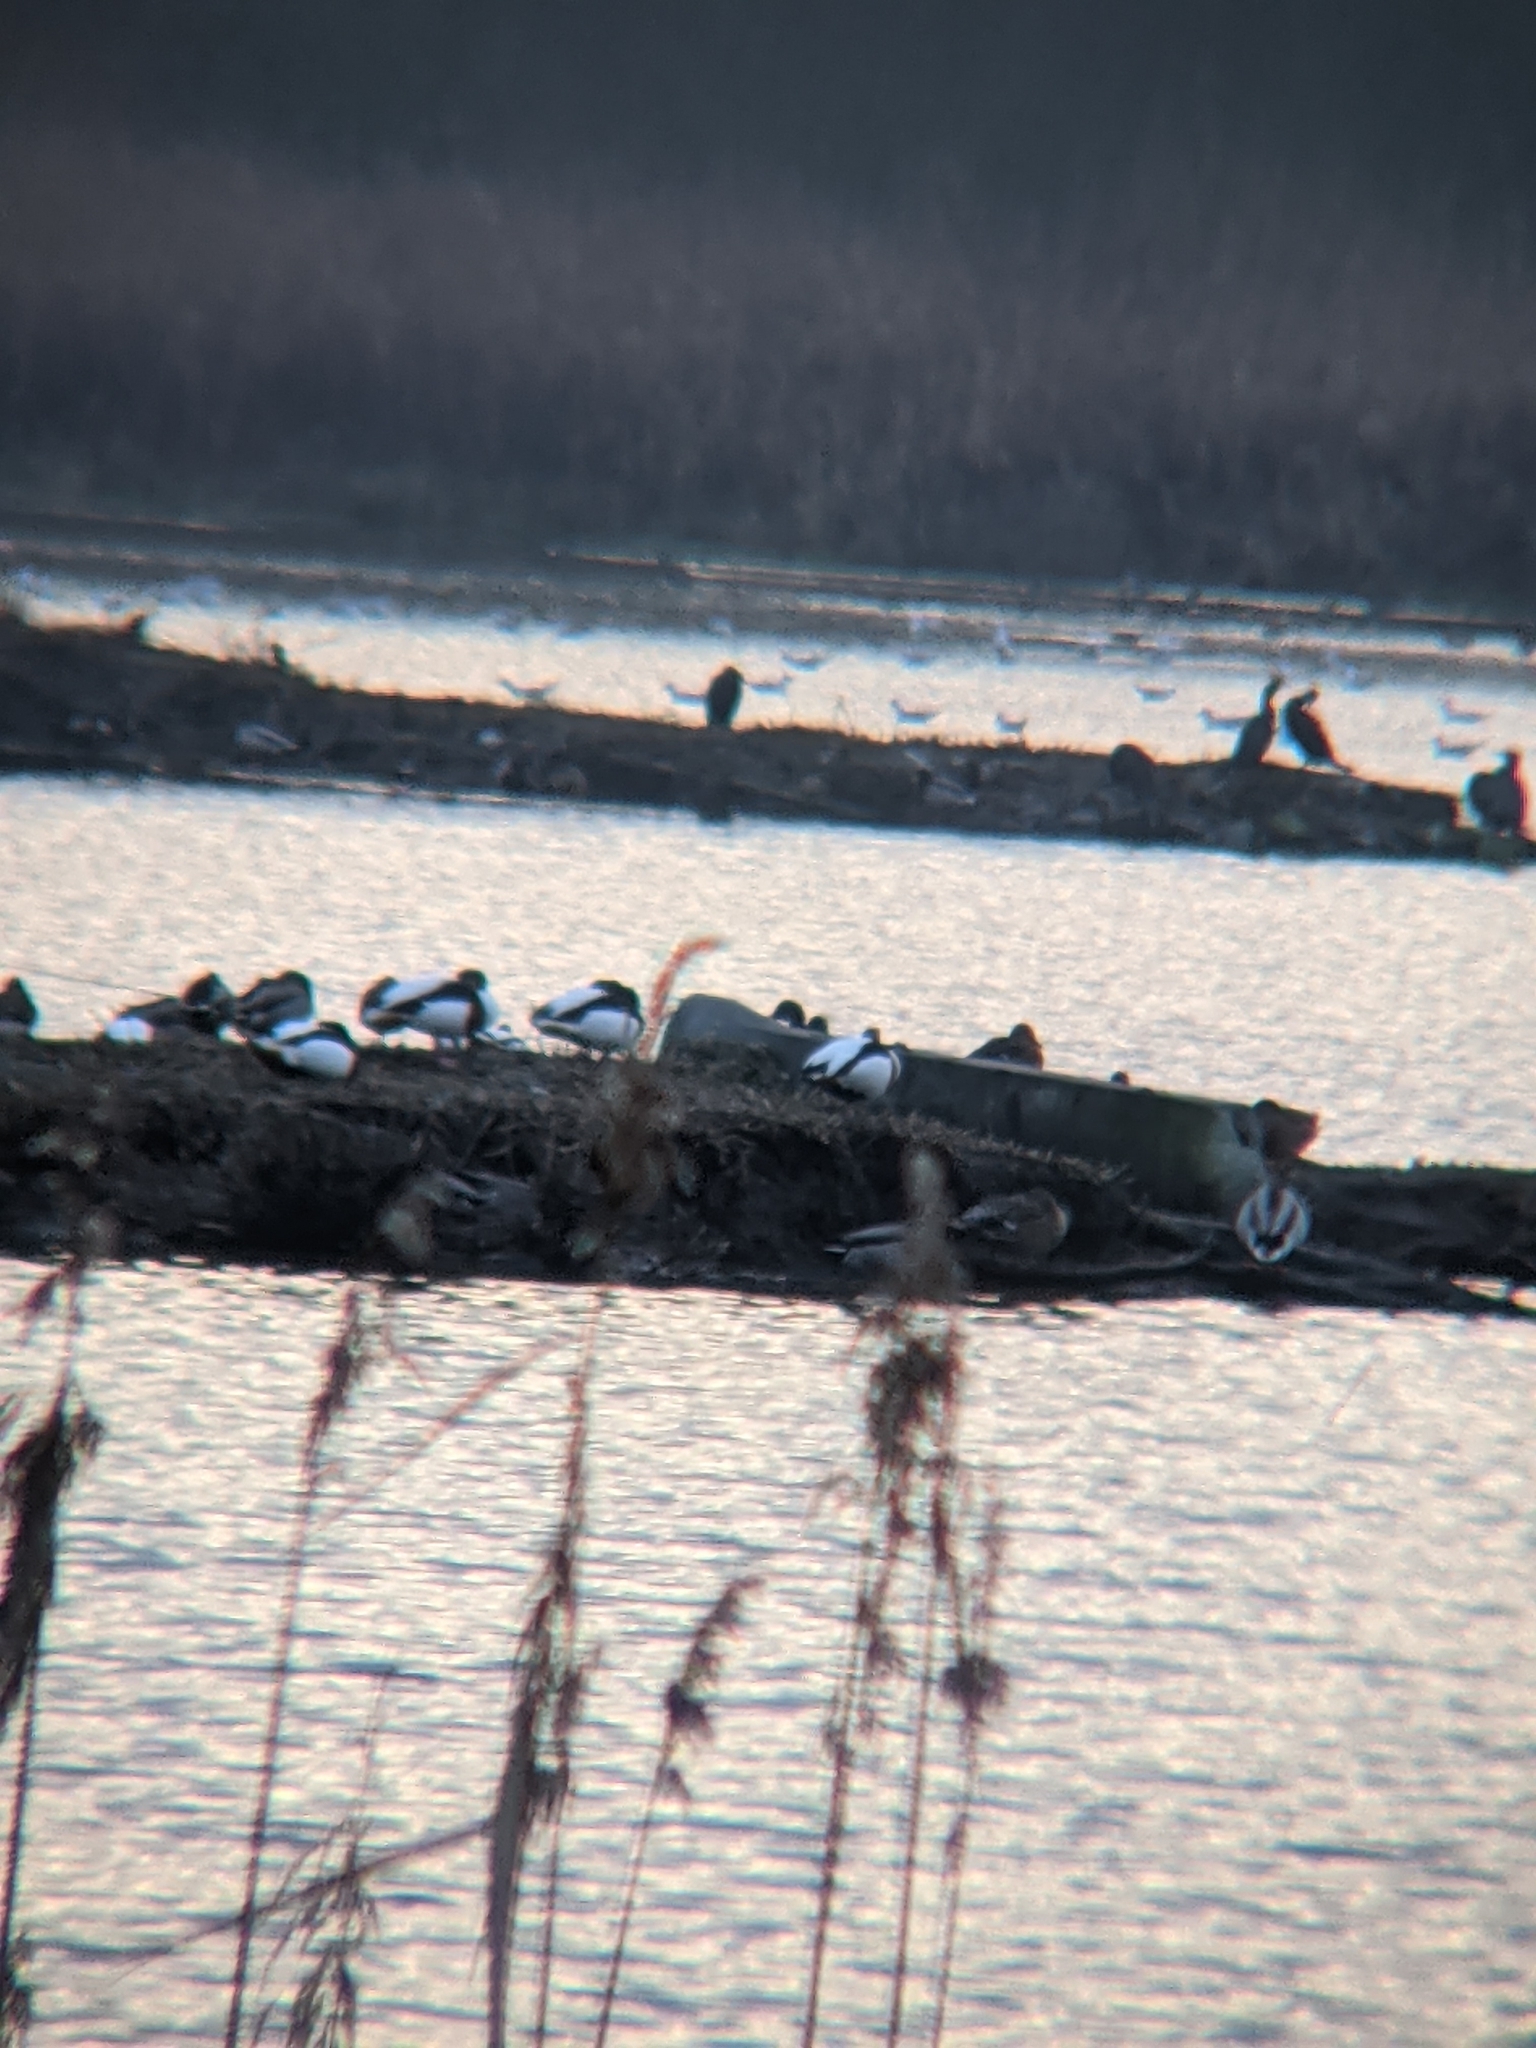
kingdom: Animalia
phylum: Chordata
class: Aves
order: Anseriformes
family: Anatidae
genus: Tadorna
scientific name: Tadorna tadorna
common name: Common shelduck
